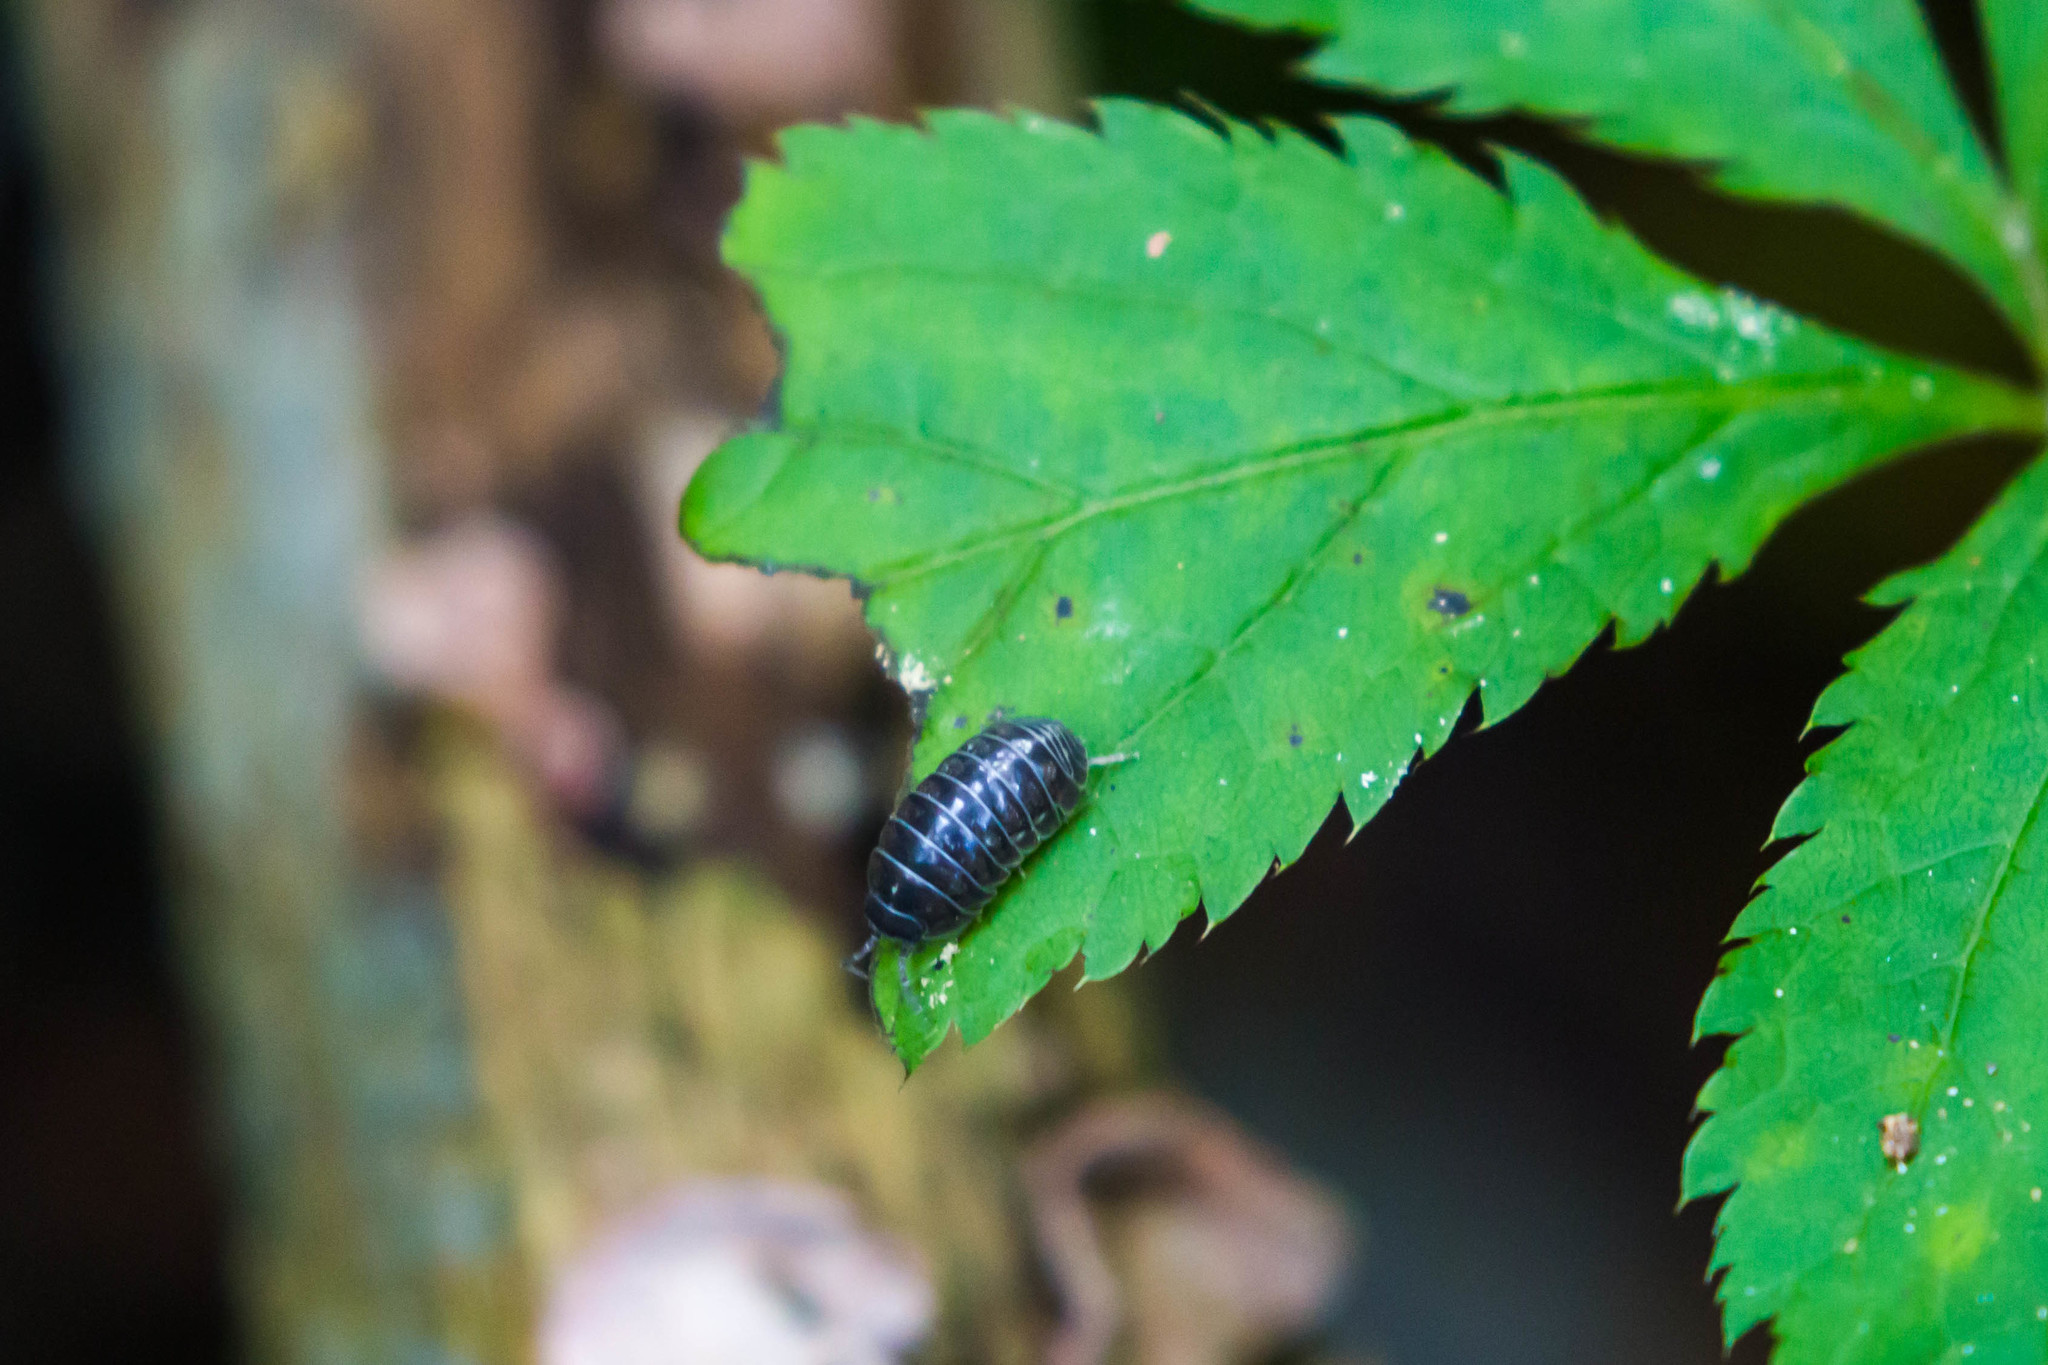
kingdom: Animalia
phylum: Arthropoda
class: Malacostraca
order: Isopoda
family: Armadillidiidae
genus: Armadillidium
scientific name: Armadillidium vulgare
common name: Common pill woodlouse
